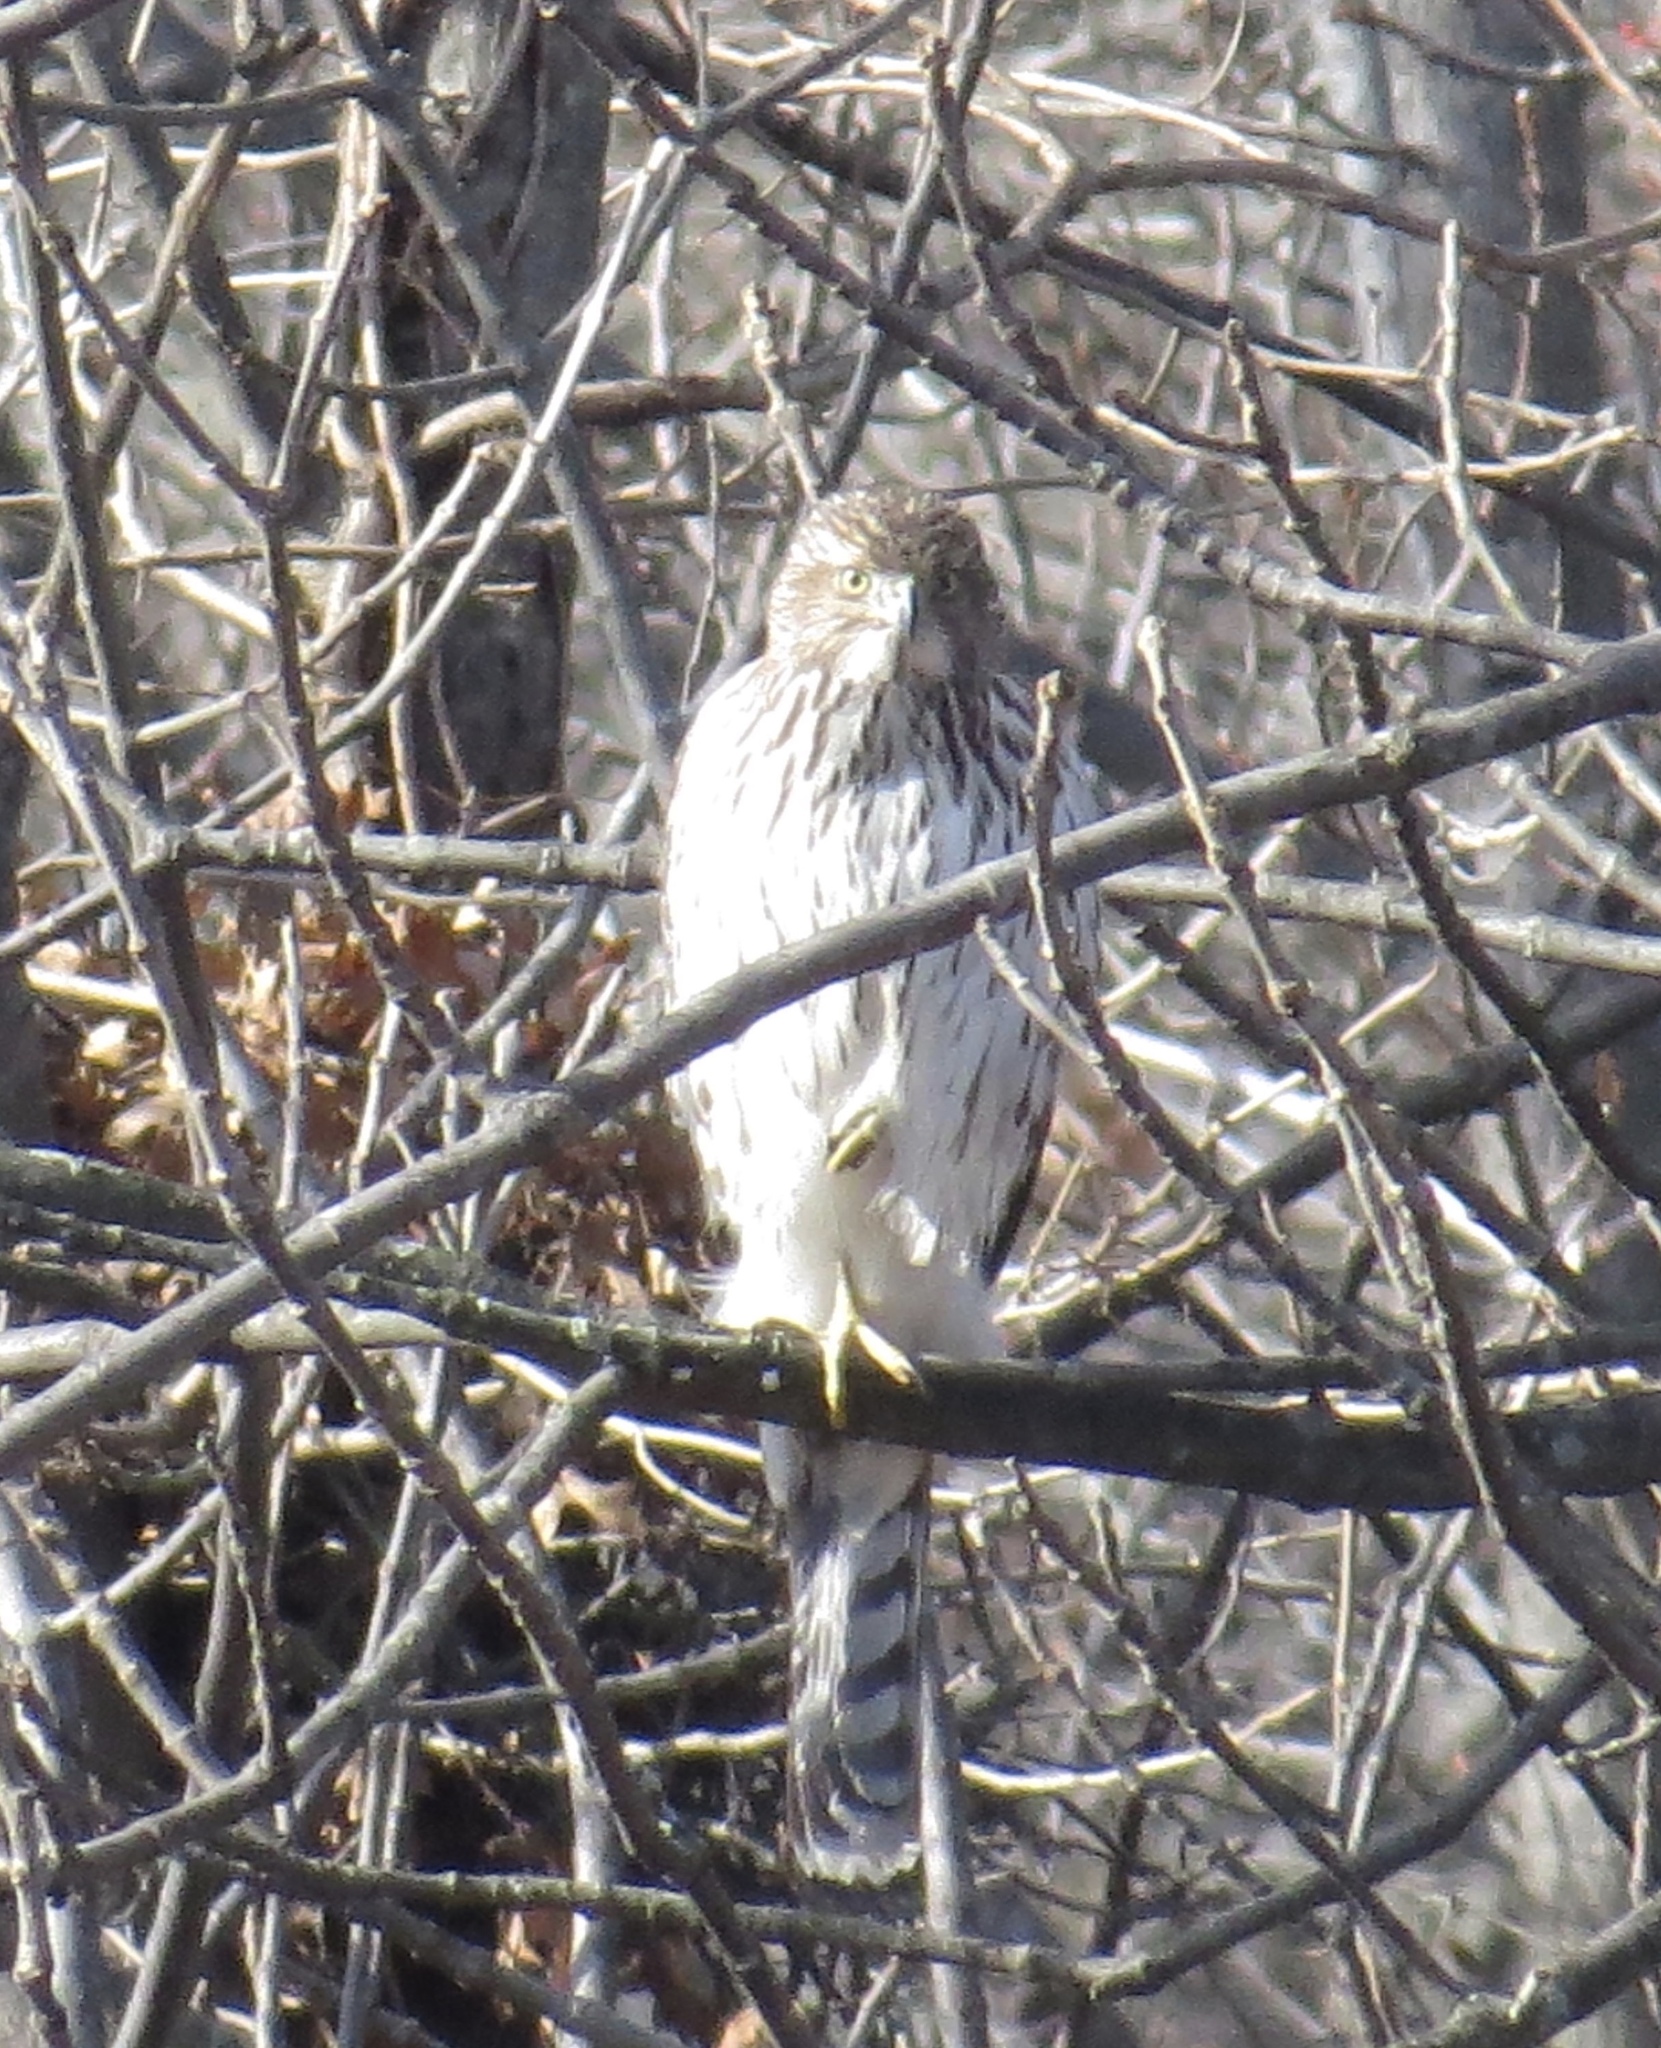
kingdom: Animalia
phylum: Chordata
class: Aves
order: Accipitriformes
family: Accipitridae
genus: Accipiter
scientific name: Accipiter cooperii
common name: Cooper's hawk
